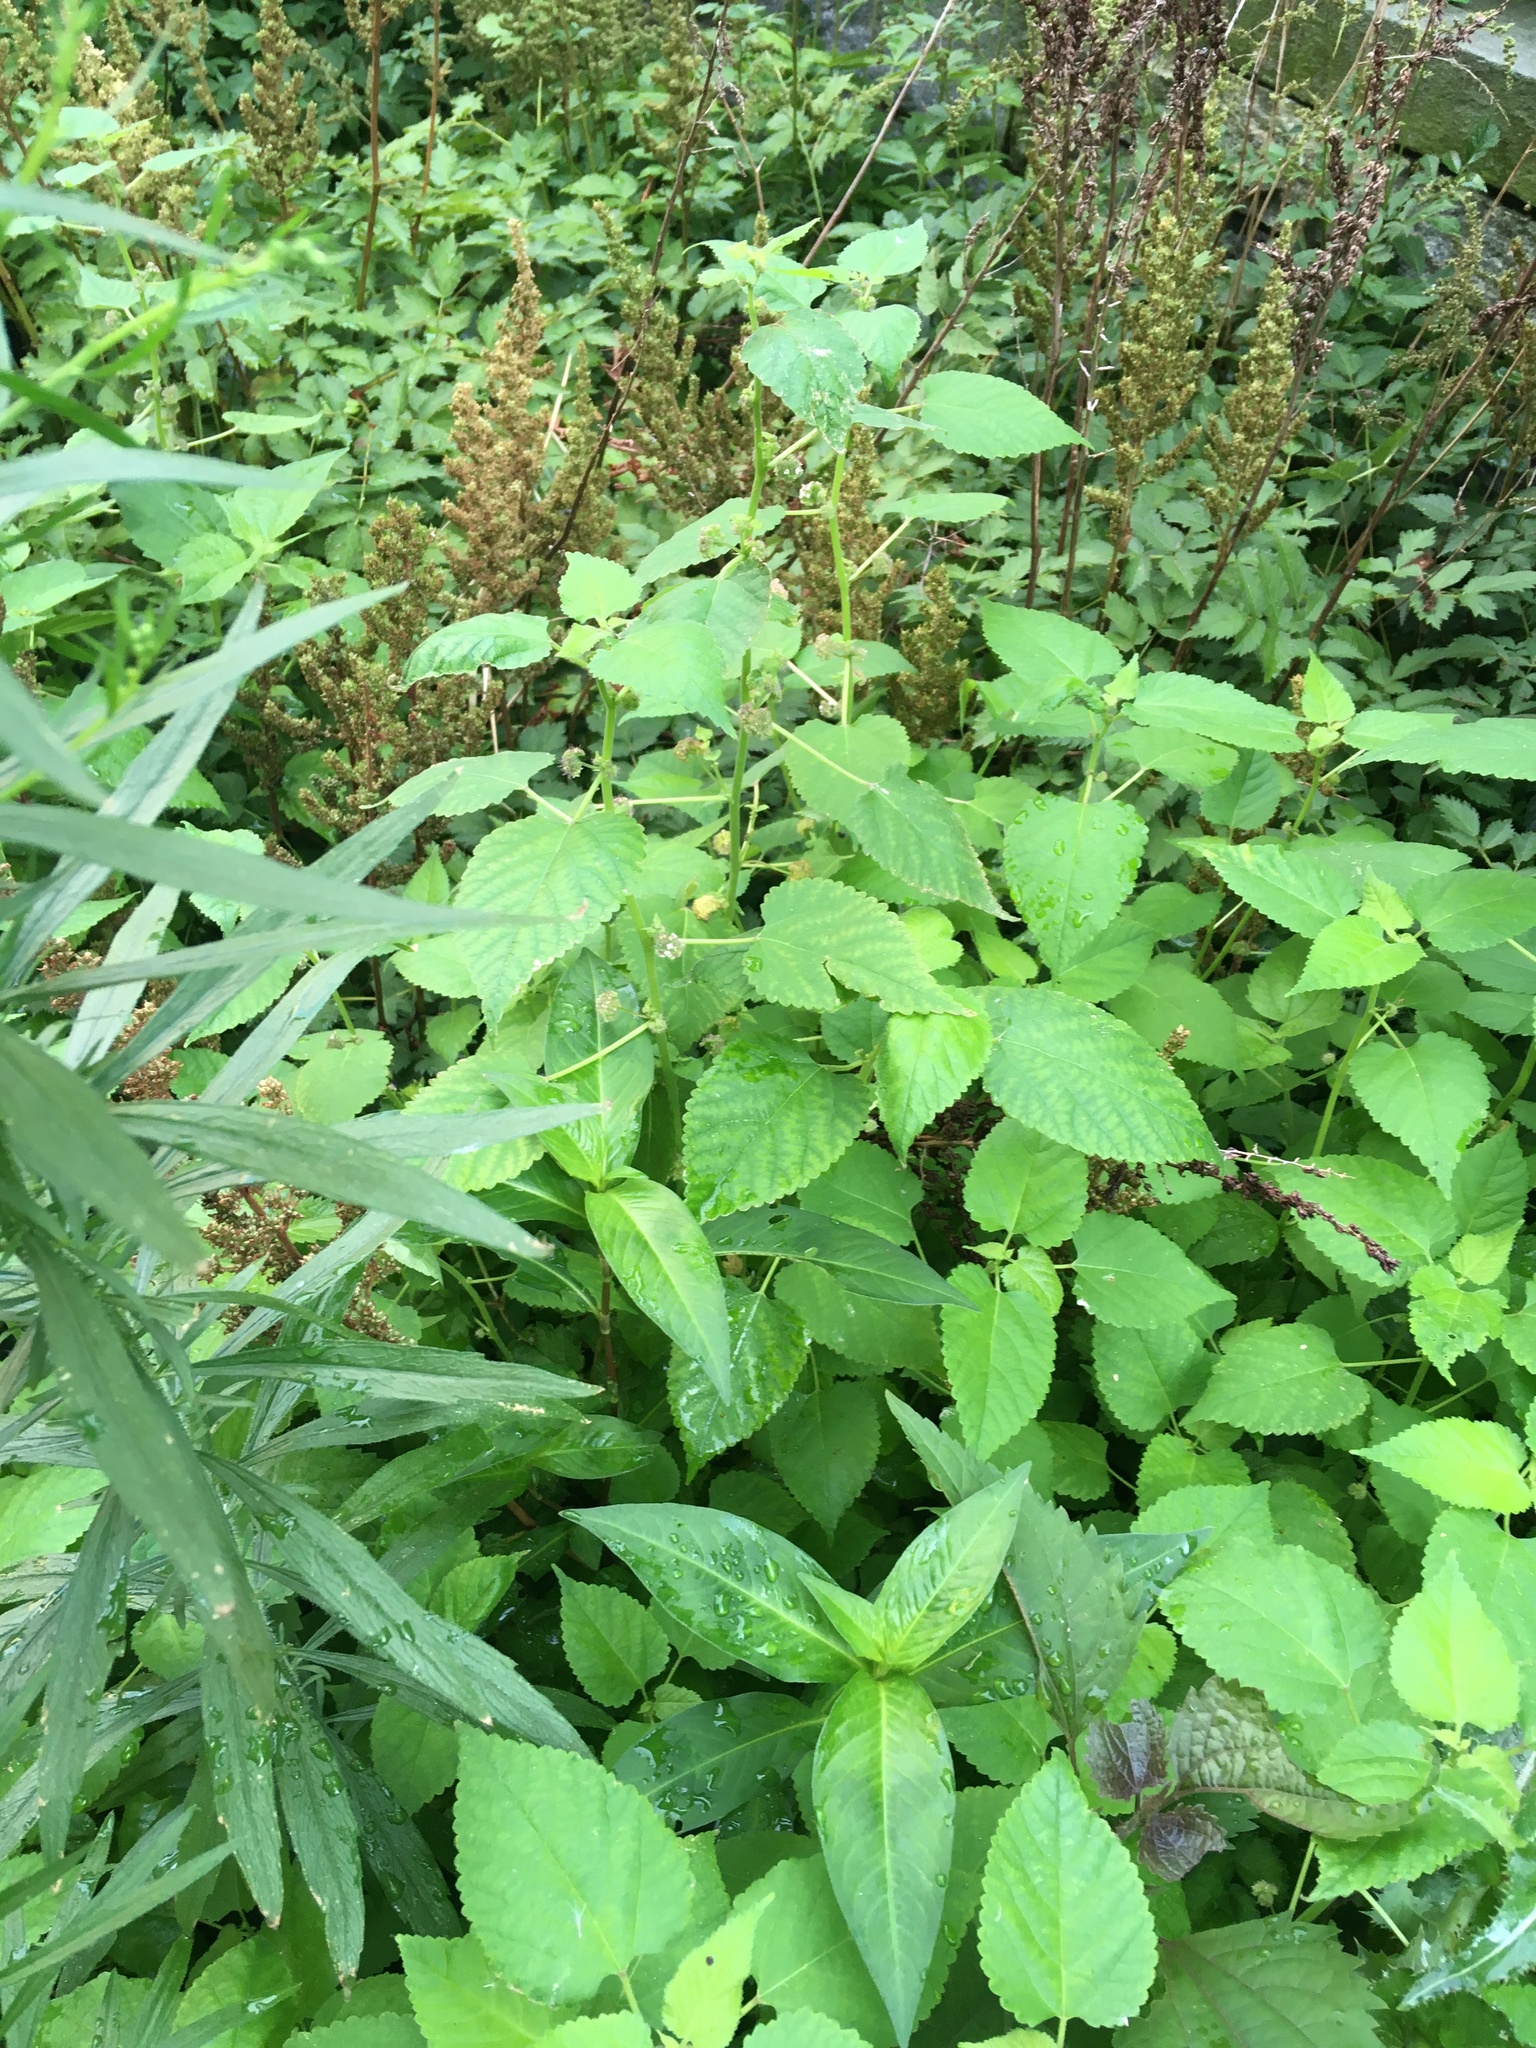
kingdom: Plantae
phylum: Tracheophyta
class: Magnoliopsida
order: Rosales
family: Moraceae
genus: Fatoua
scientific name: Fatoua villosa
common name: Hairy crabweed
